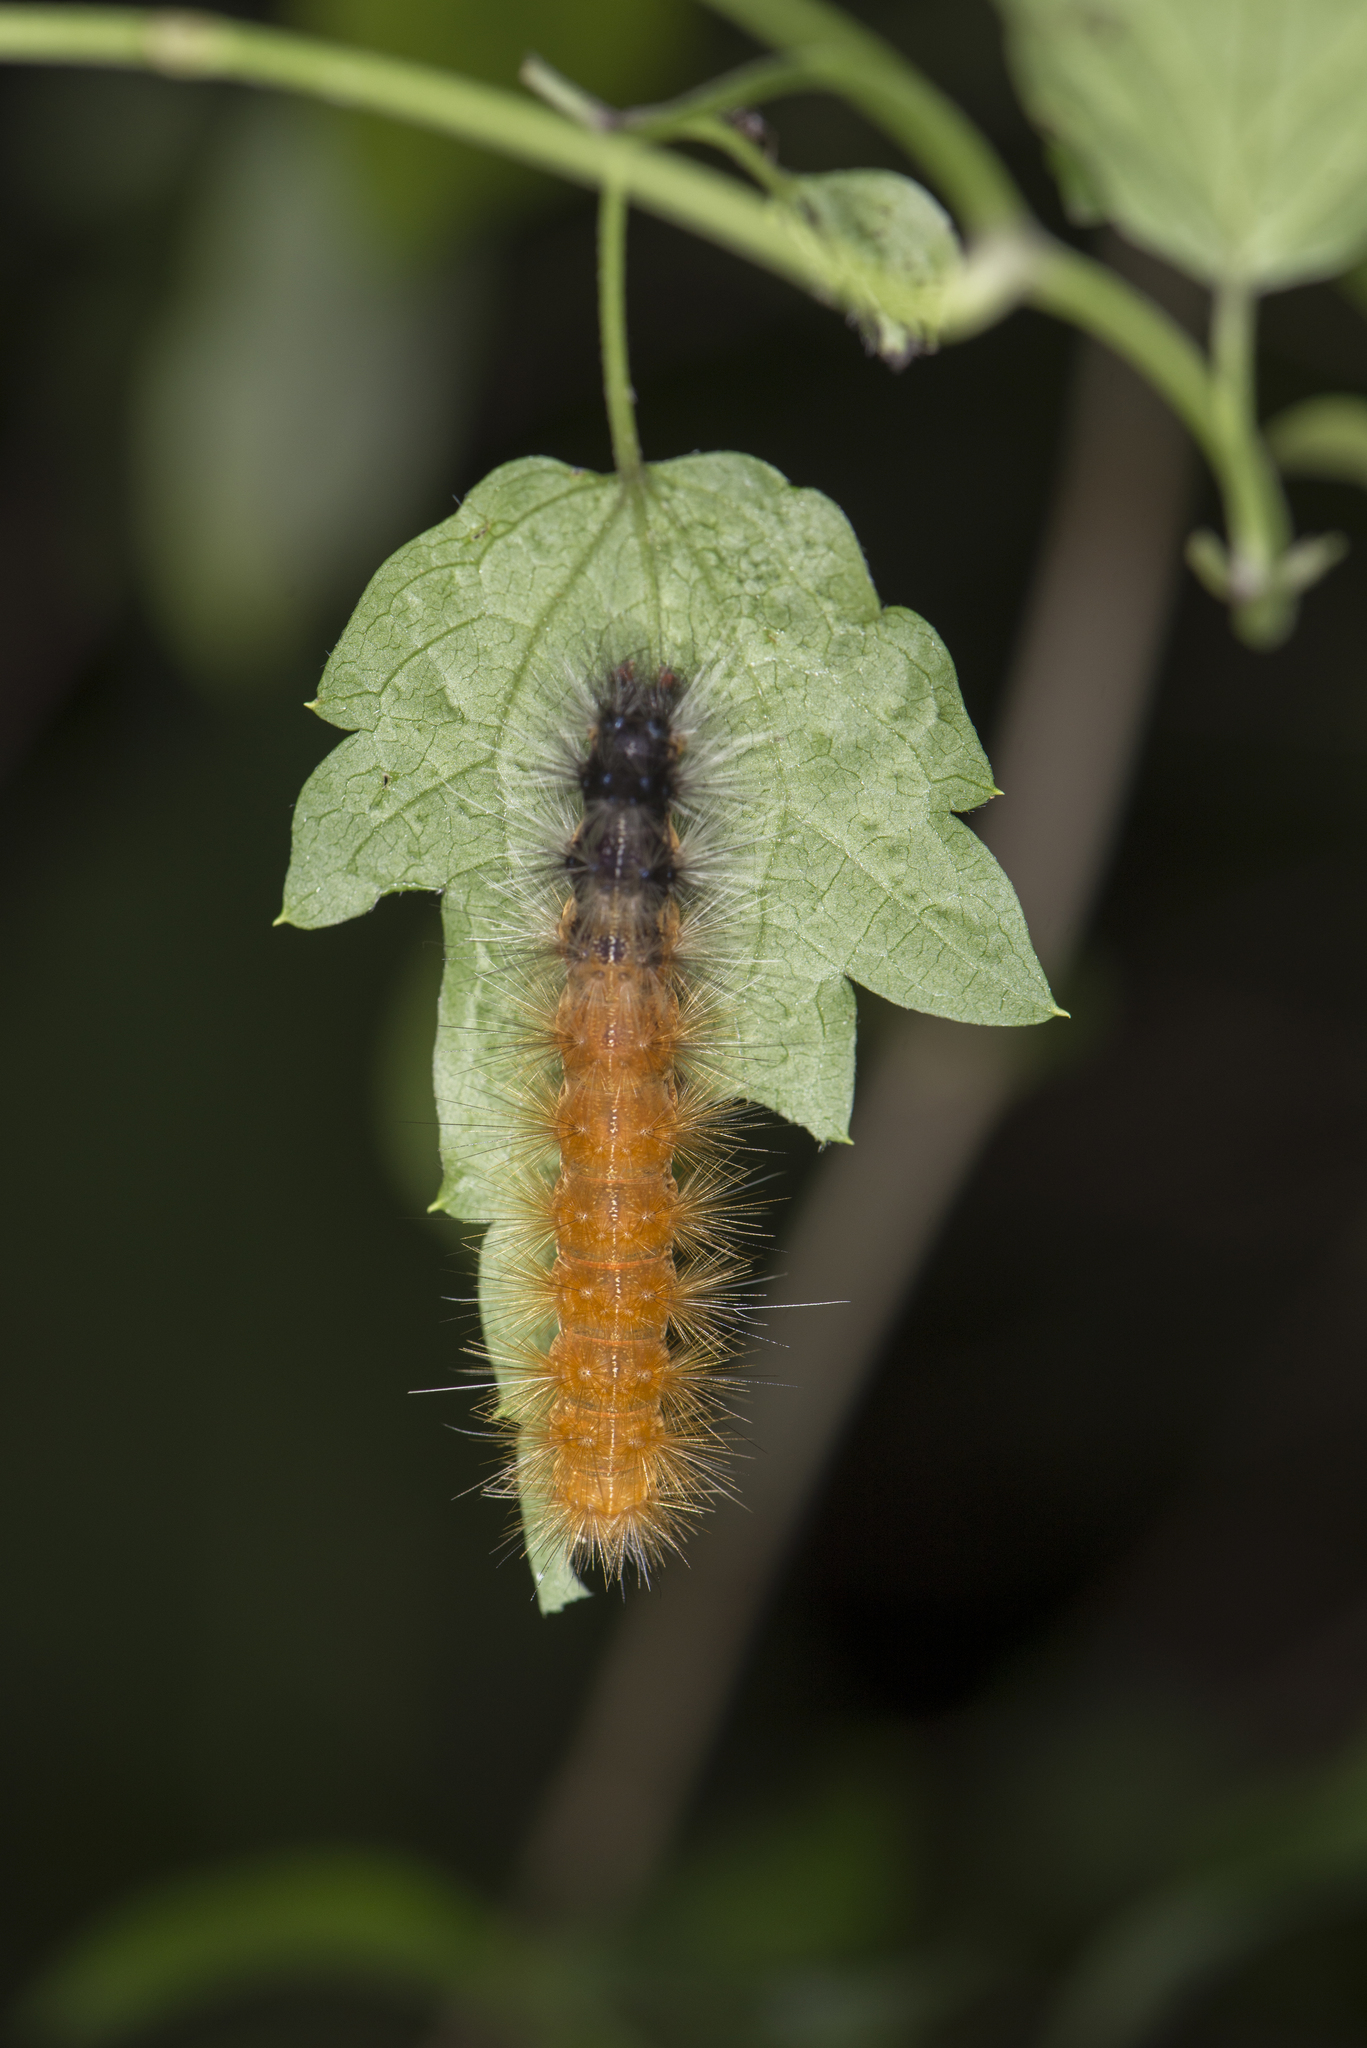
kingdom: Animalia
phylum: Arthropoda
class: Insecta
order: Lepidoptera
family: Erebidae
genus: Spilarctia
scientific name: Spilarctia nydia
